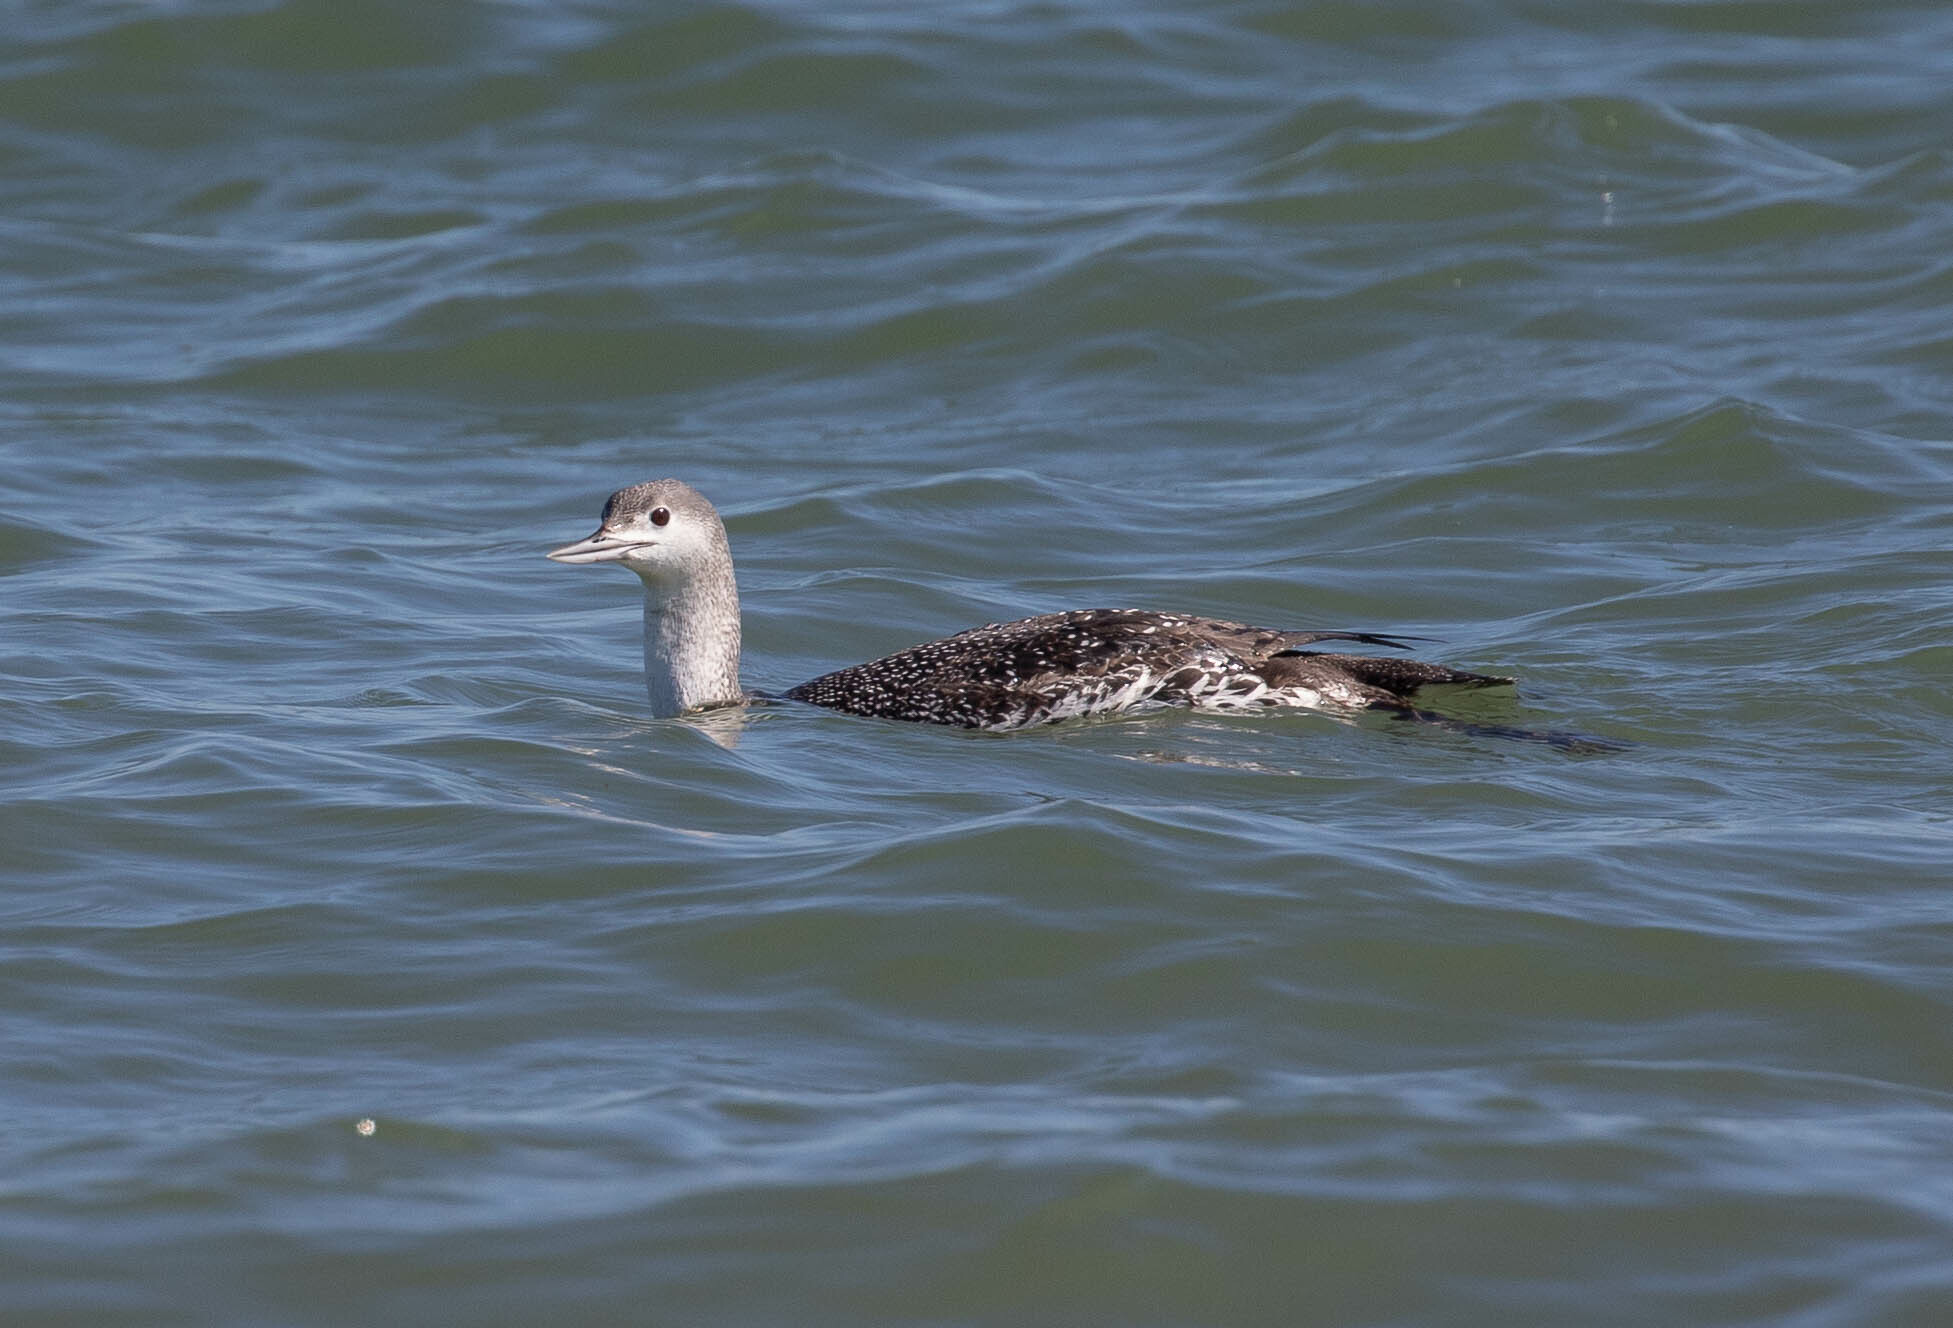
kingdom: Animalia
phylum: Chordata
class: Aves
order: Gaviiformes
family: Gaviidae
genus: Gavia
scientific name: Gavia stellata
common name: Red-throated loon
